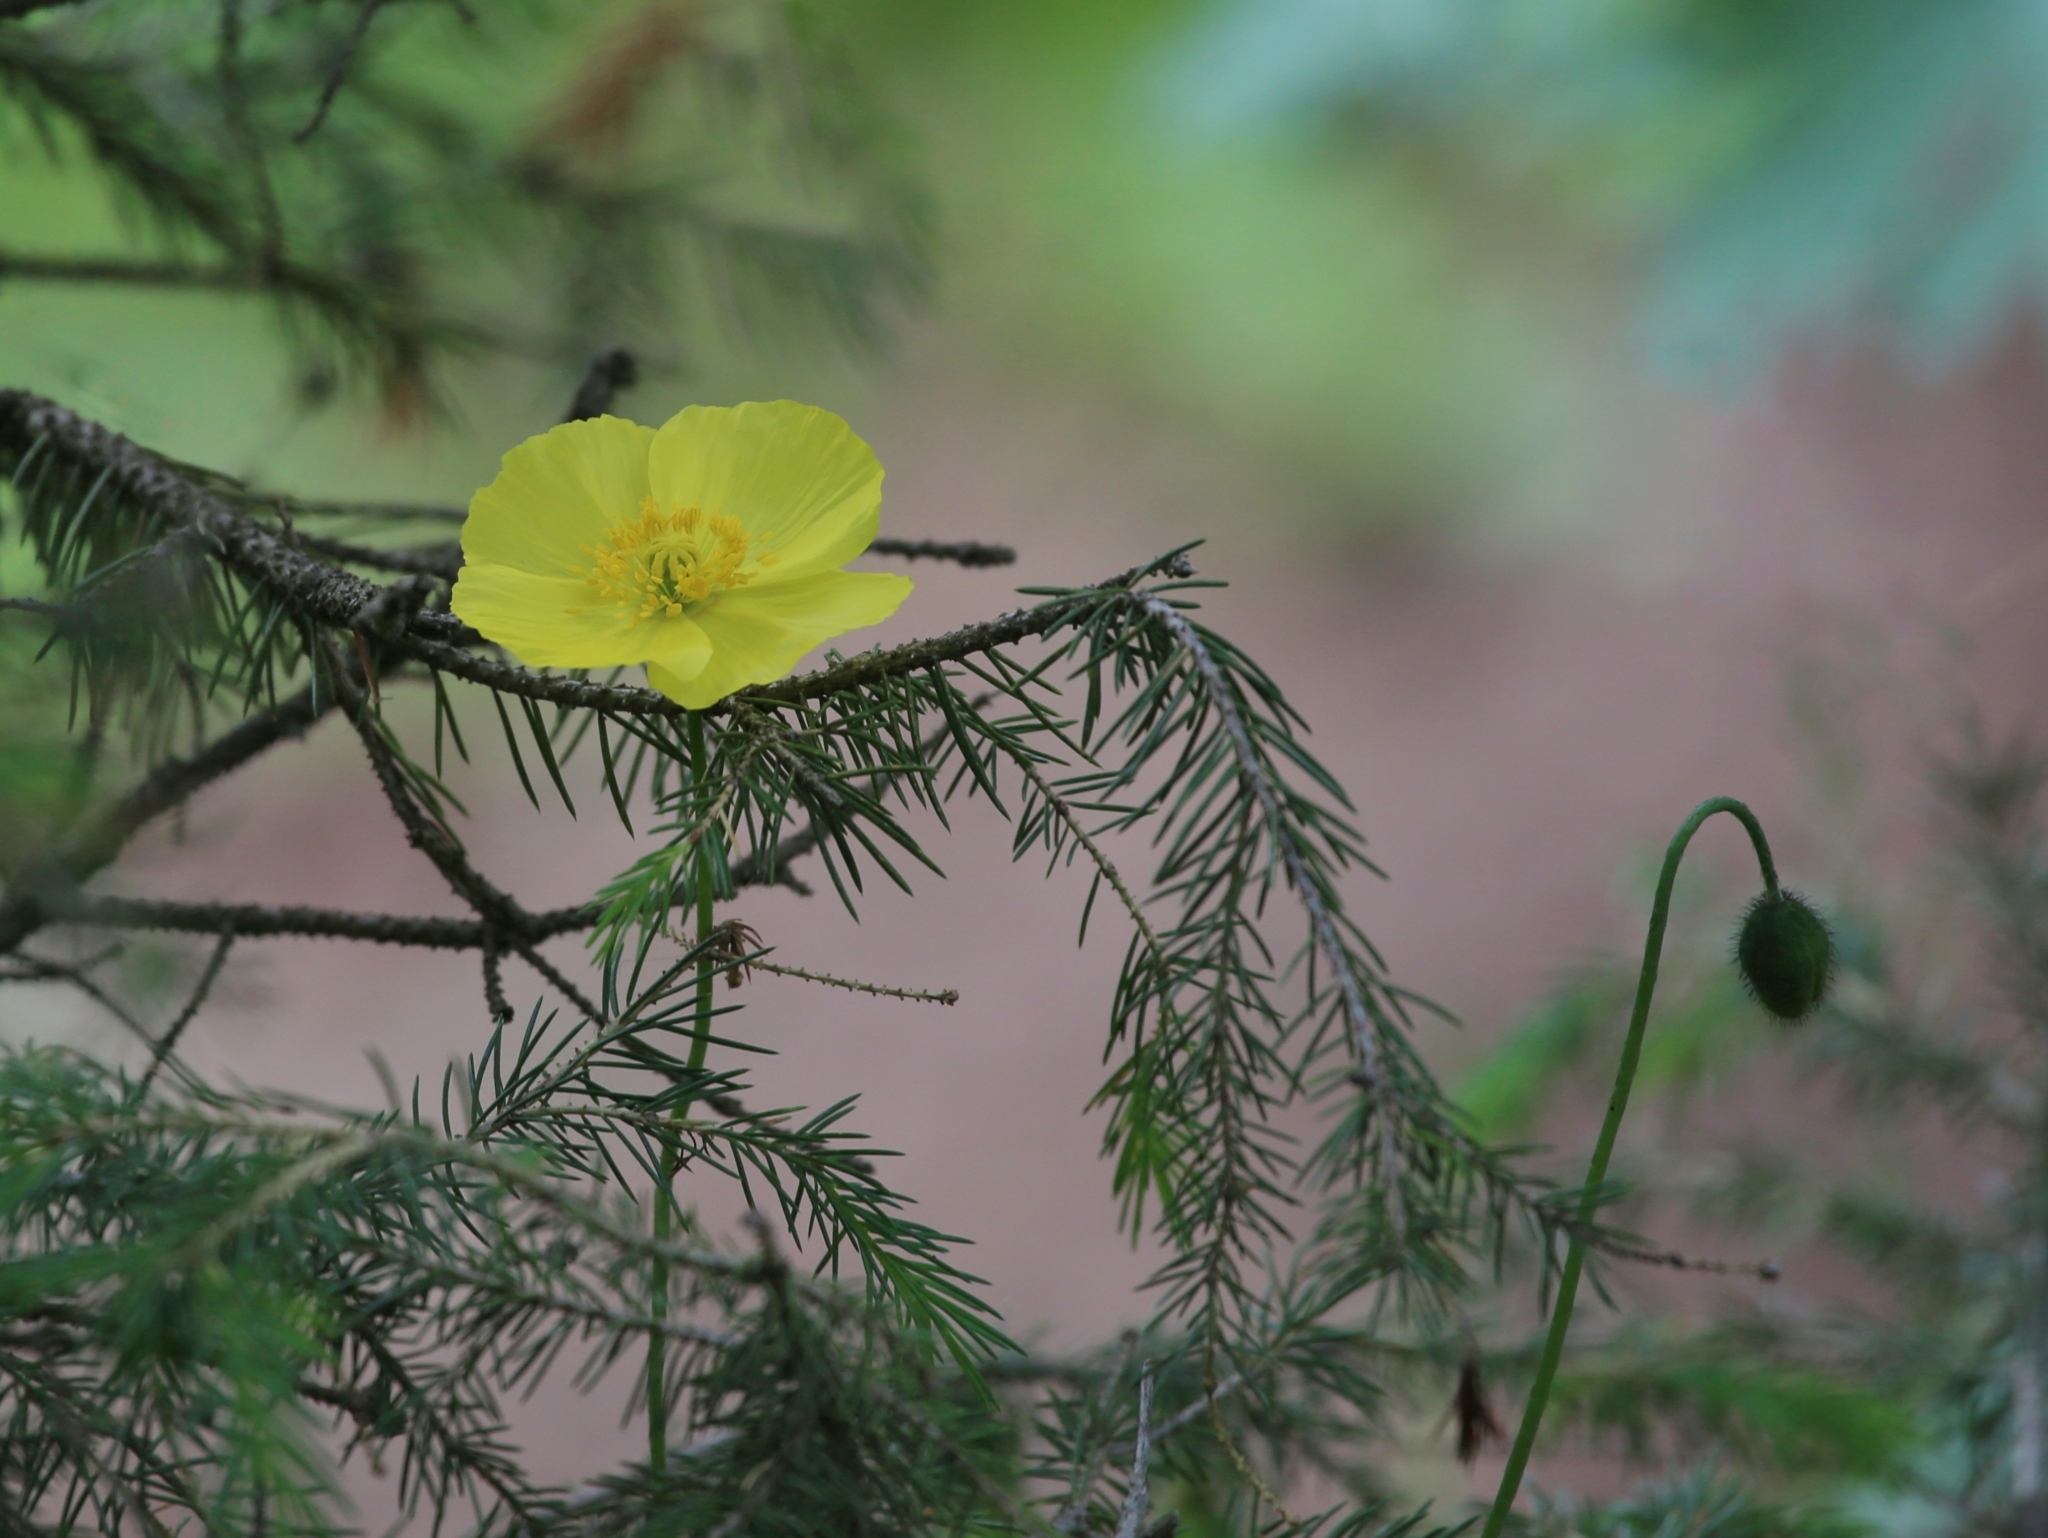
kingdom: Plantae
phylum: Tracheophyta
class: Magnoliopsida
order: Ranunculales
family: Papaveraceae
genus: Oreomecon
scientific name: Oreomecon
